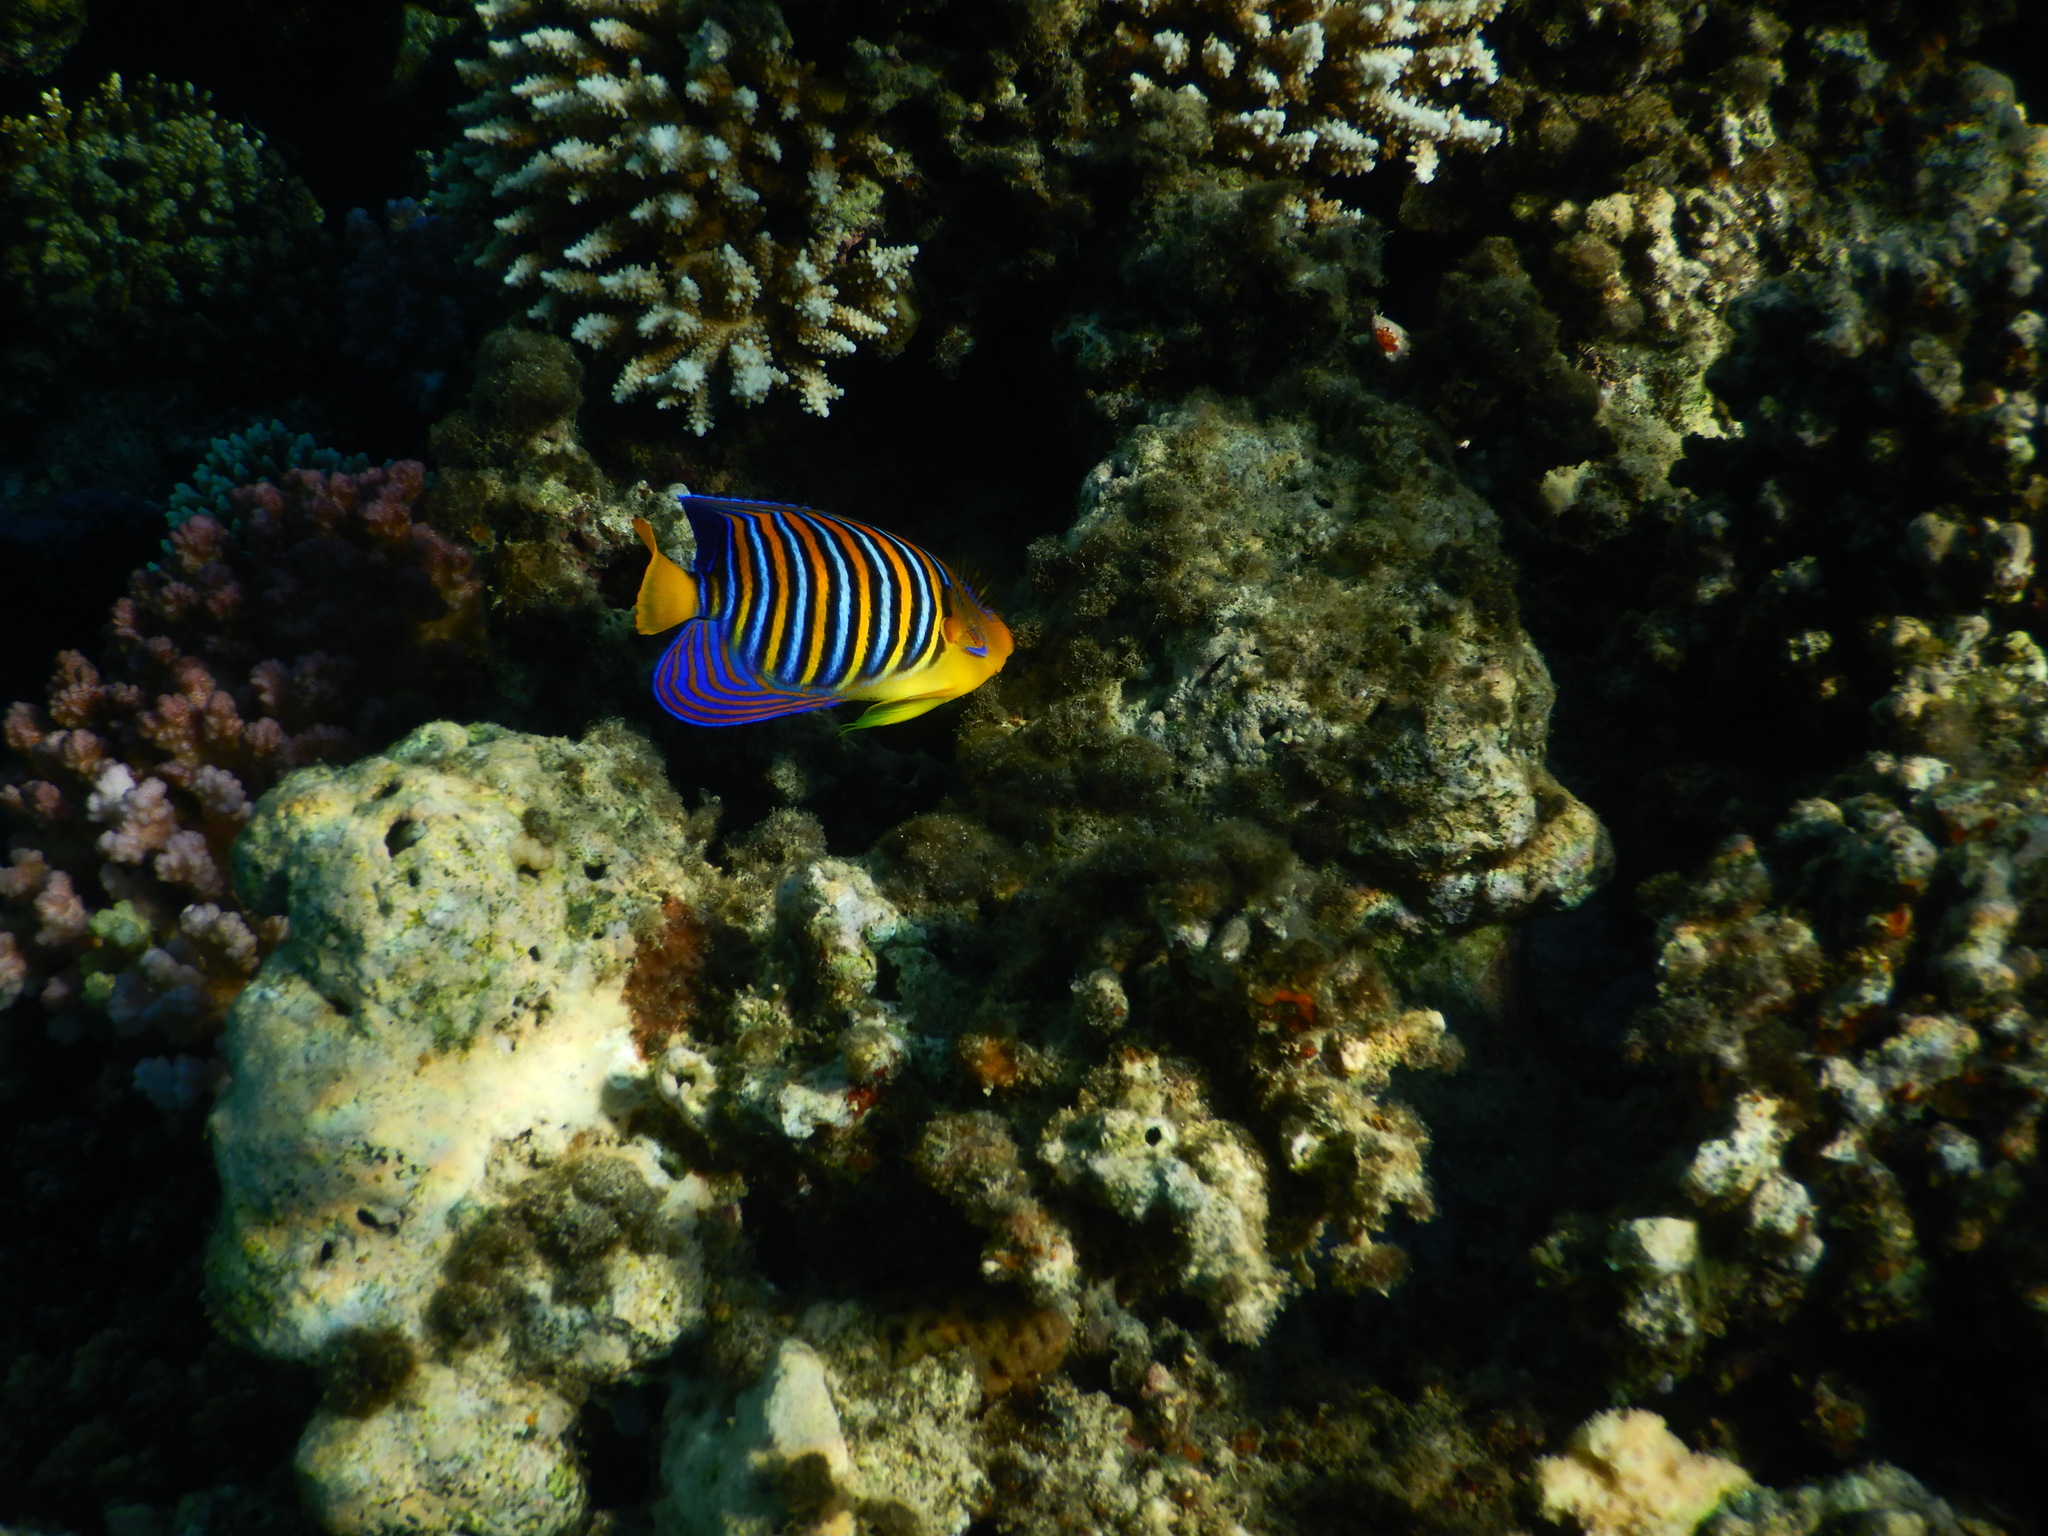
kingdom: Animalia
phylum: Chordata
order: Perciformes
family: Pomacanthidae
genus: Pygoplites
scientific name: Pygoplites diacanthus
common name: Regal angelfish
